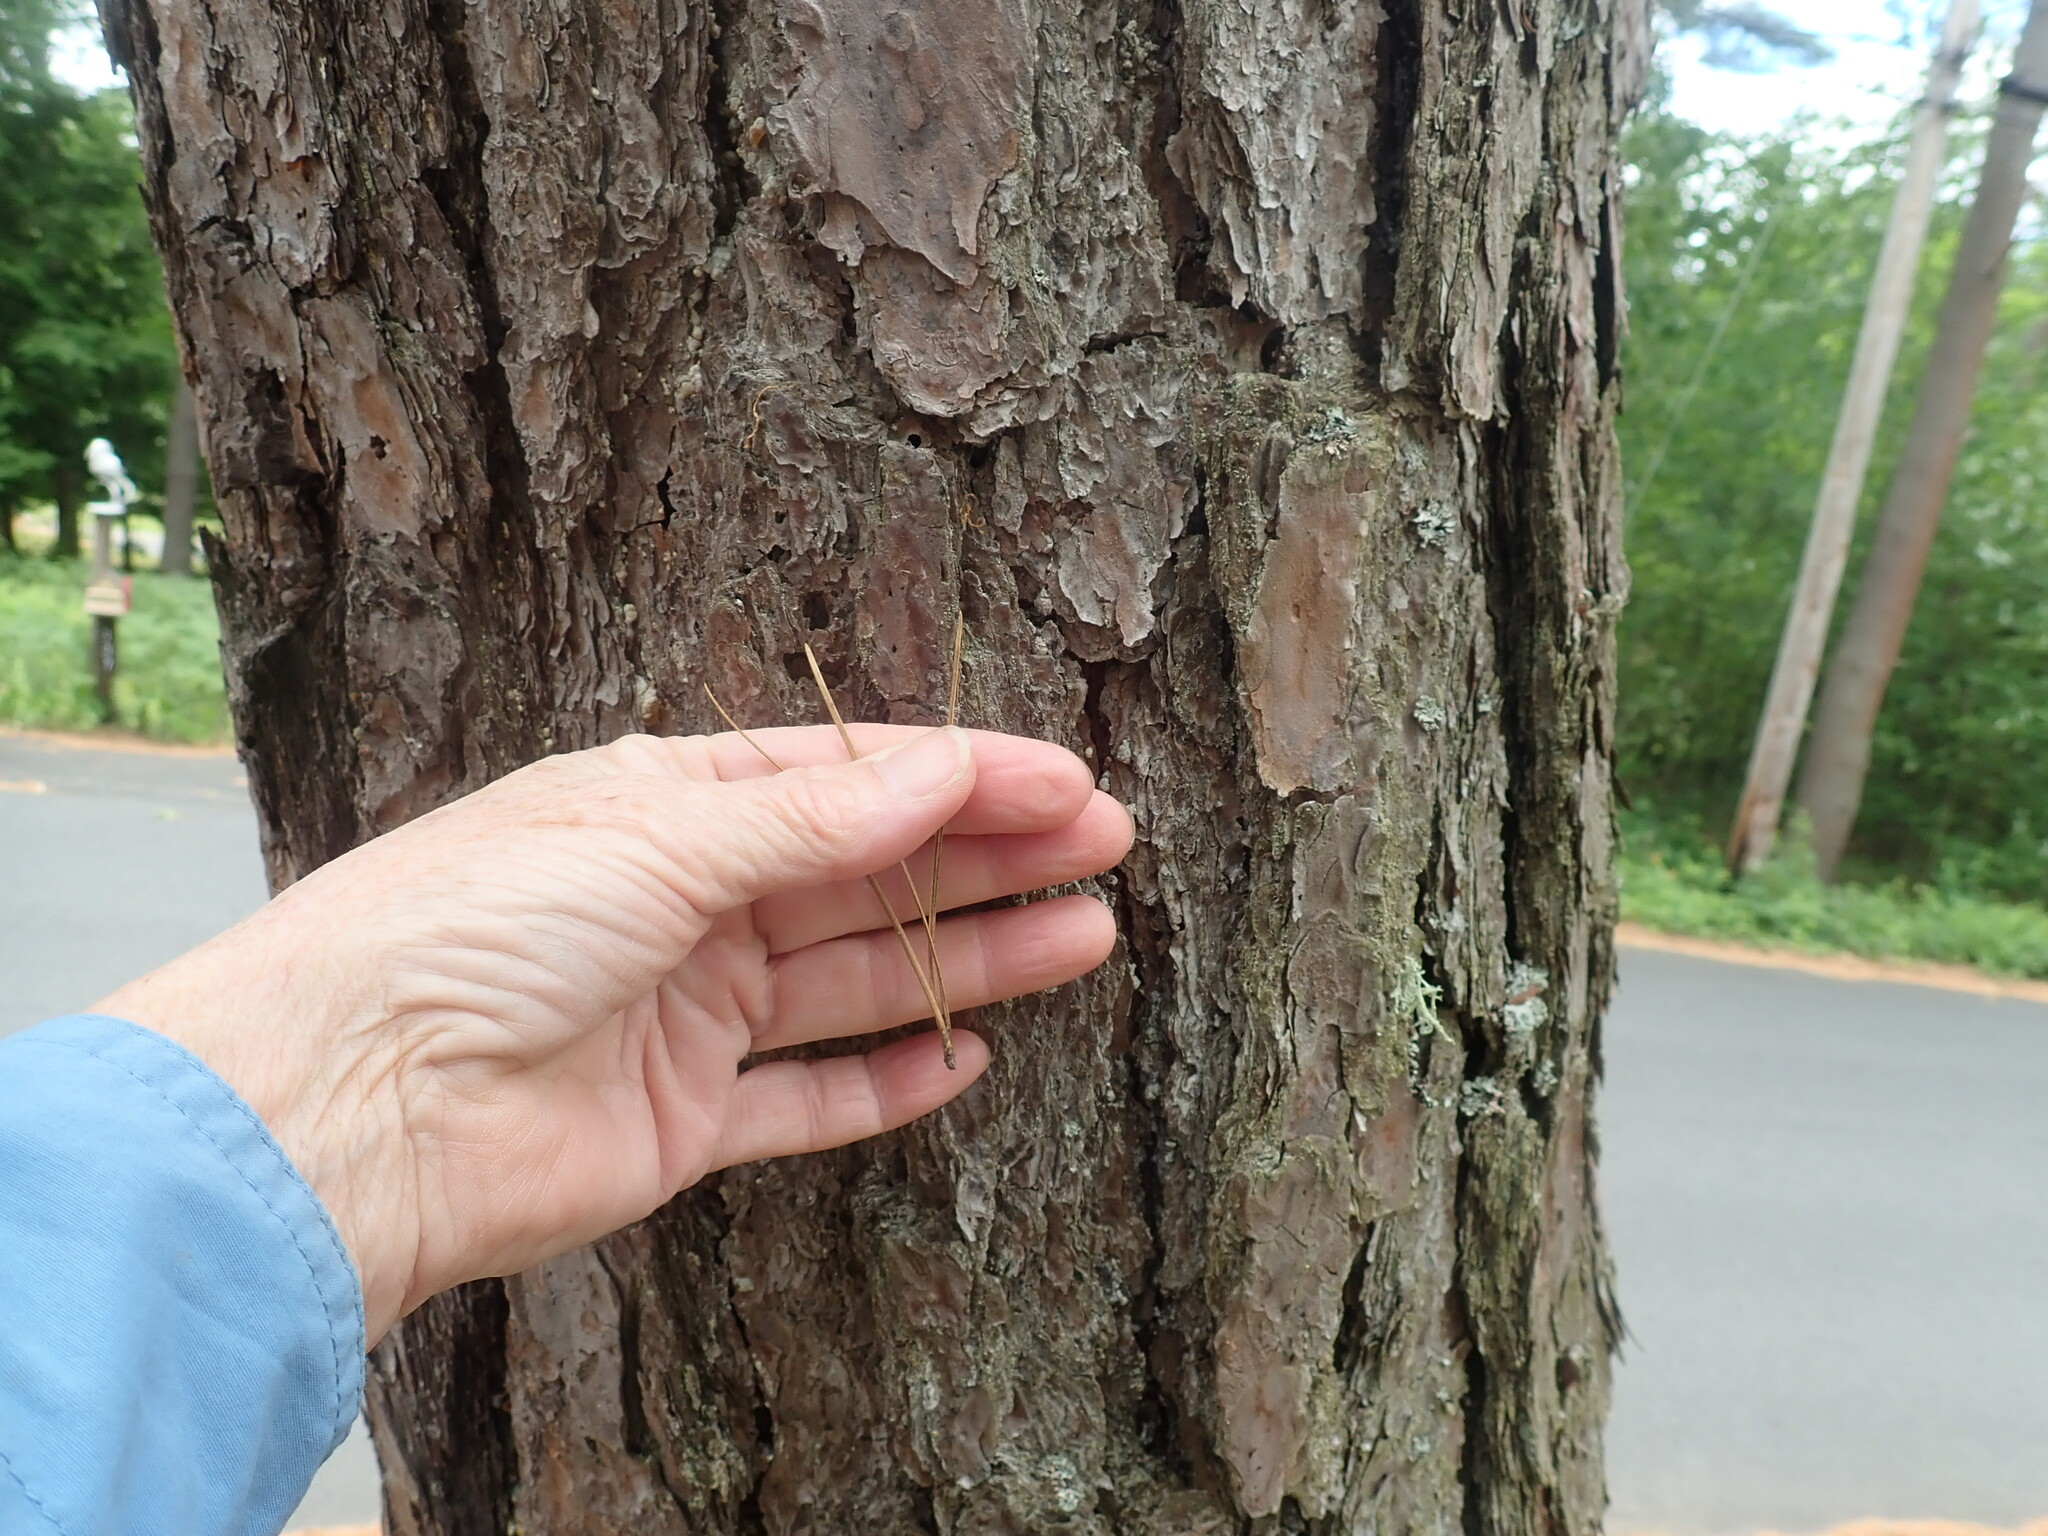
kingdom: Plantae
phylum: Tracheophyta
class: Pinopsida
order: Pinales
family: Pinaceae
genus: Pinus
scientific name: Pinus rigida
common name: Pitch pine
